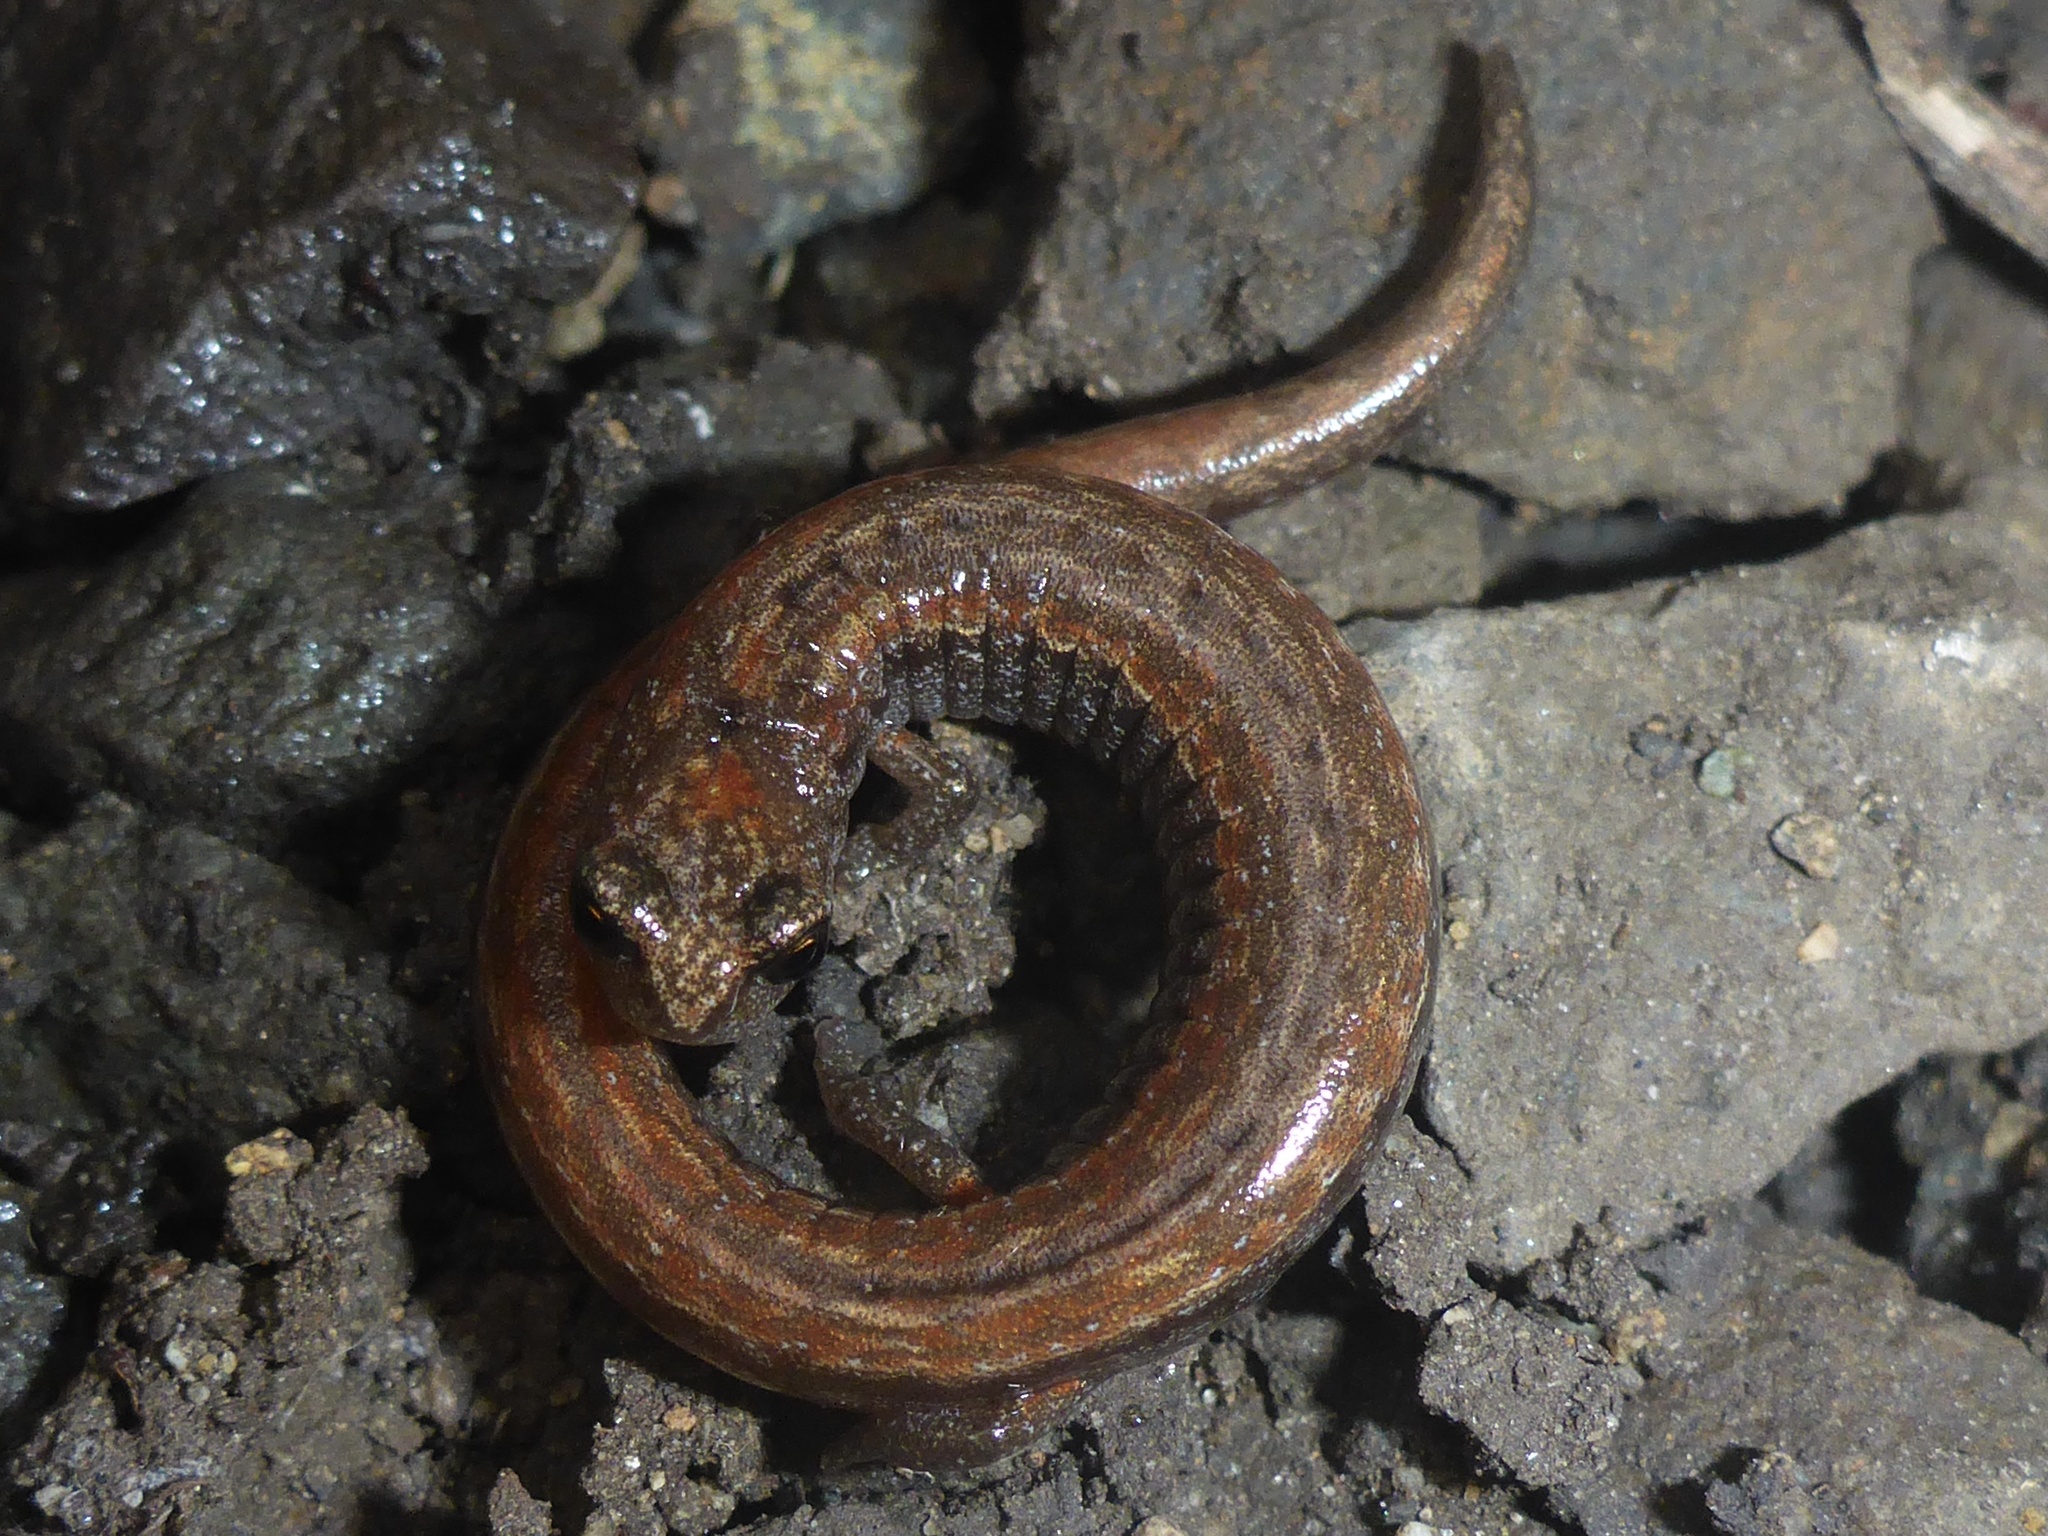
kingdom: Animalia
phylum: Chordata
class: Amphibia
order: Caudata
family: Plethodontidae
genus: Batrachoseps
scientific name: Batrachoseps attenuatus
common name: California slender salamander
